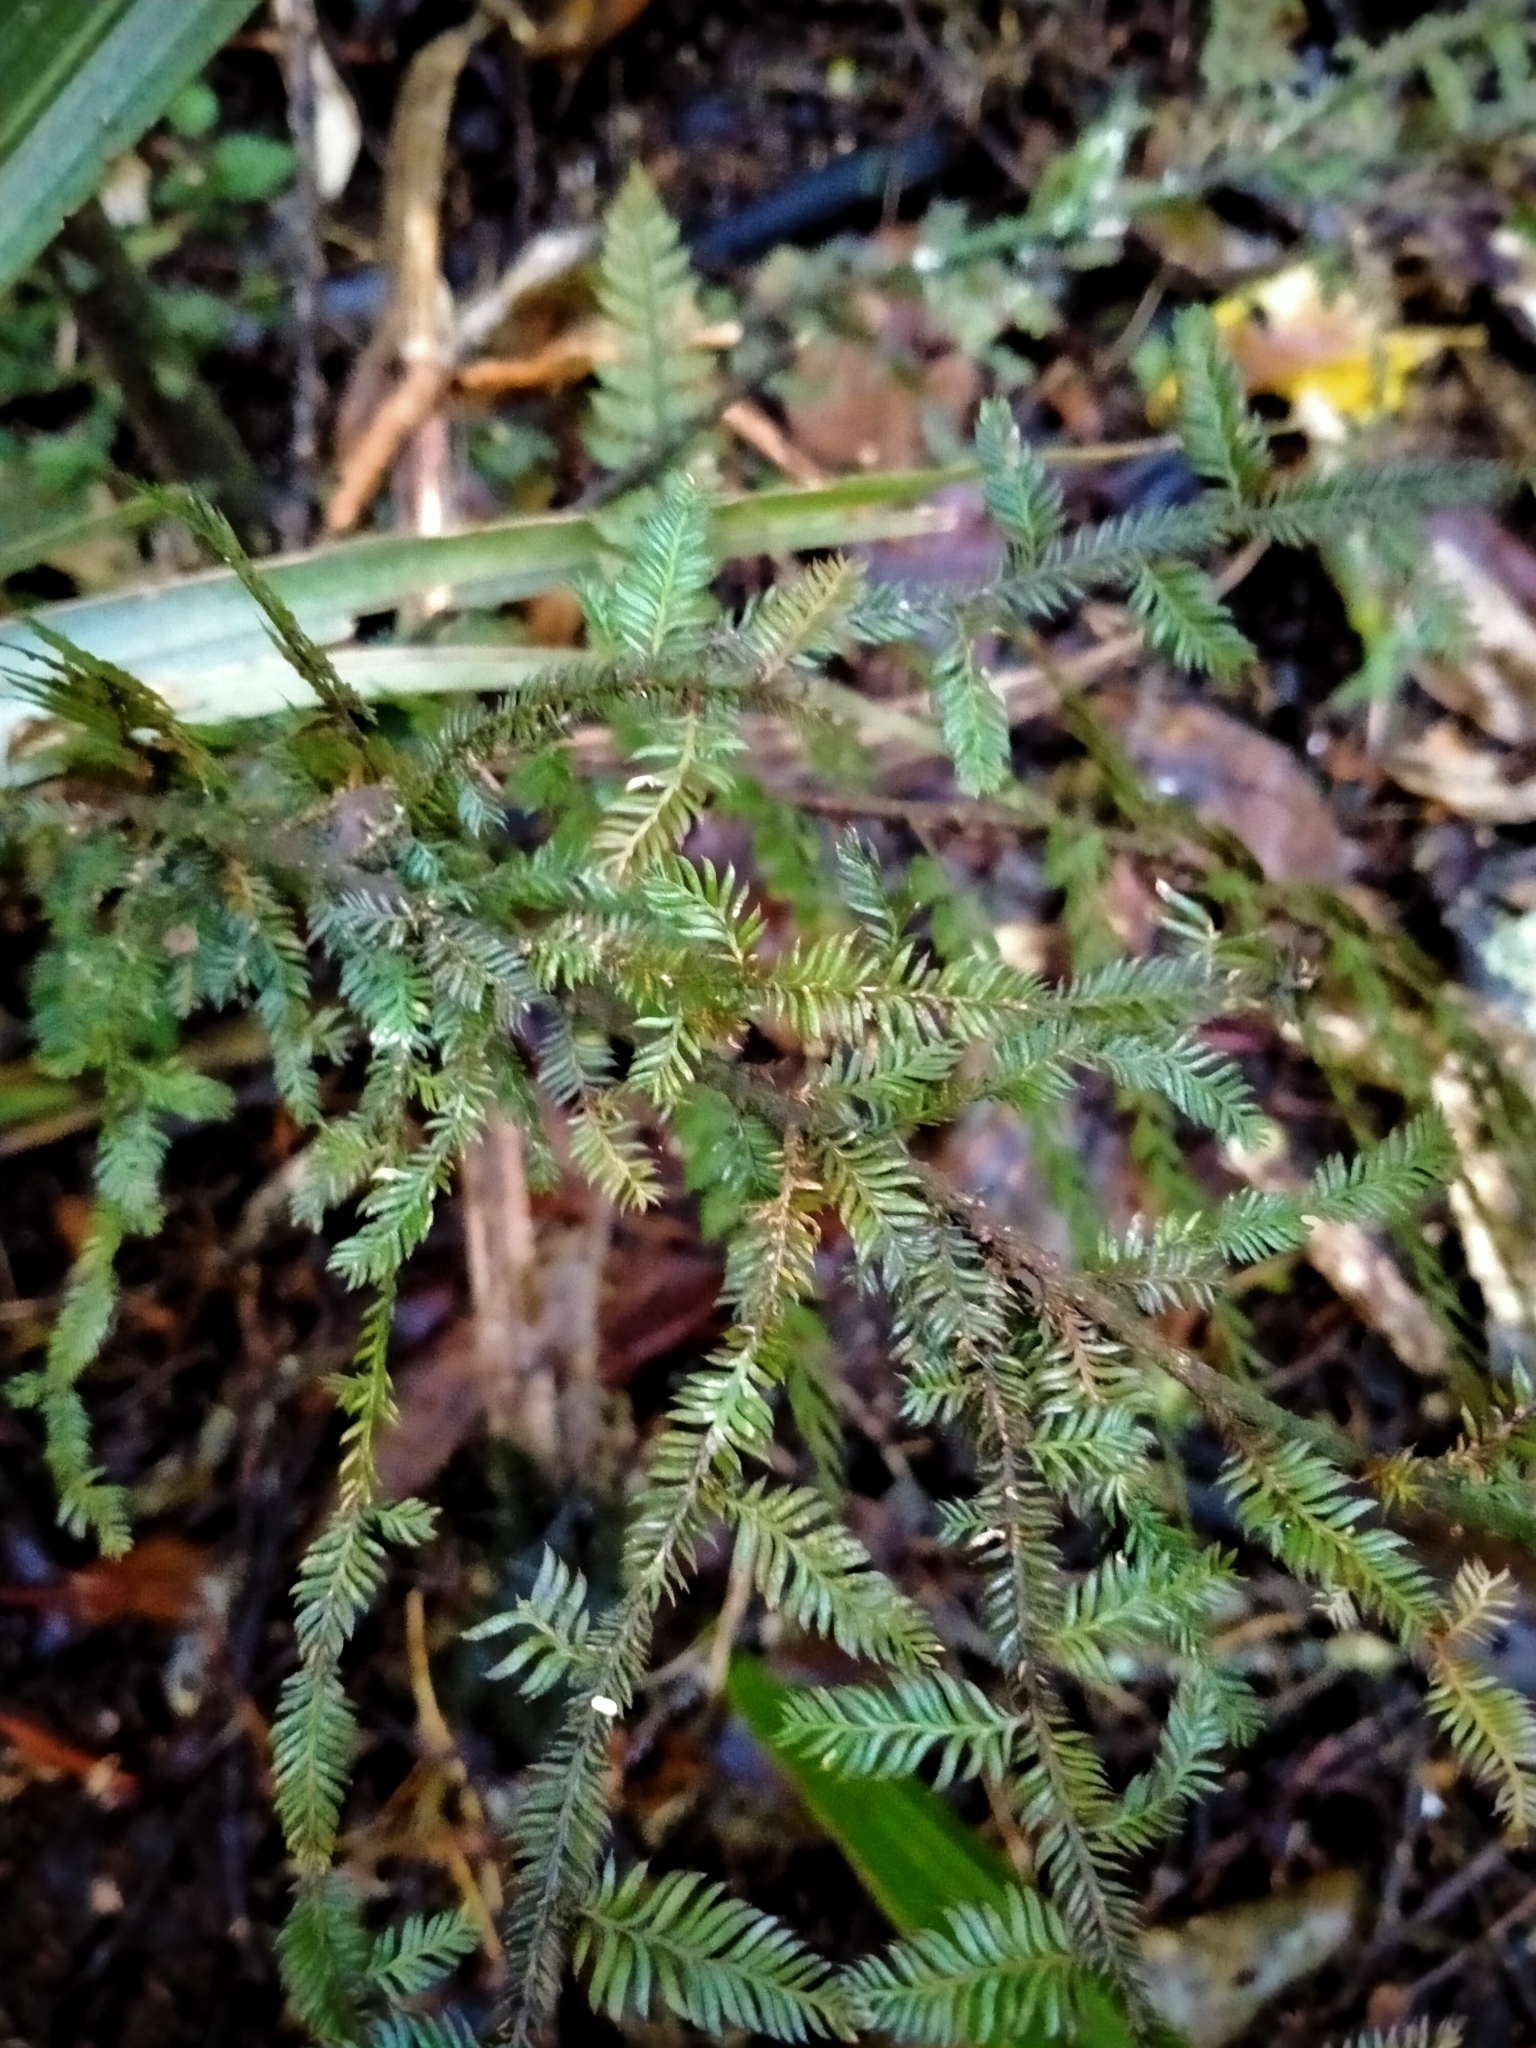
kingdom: Plantae
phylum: Tracheophyta
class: Pinopsida
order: Pinales
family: Podocarpaceae
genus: Dacrycarpus
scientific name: Dacrycarpus dacrydioides
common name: White pine
